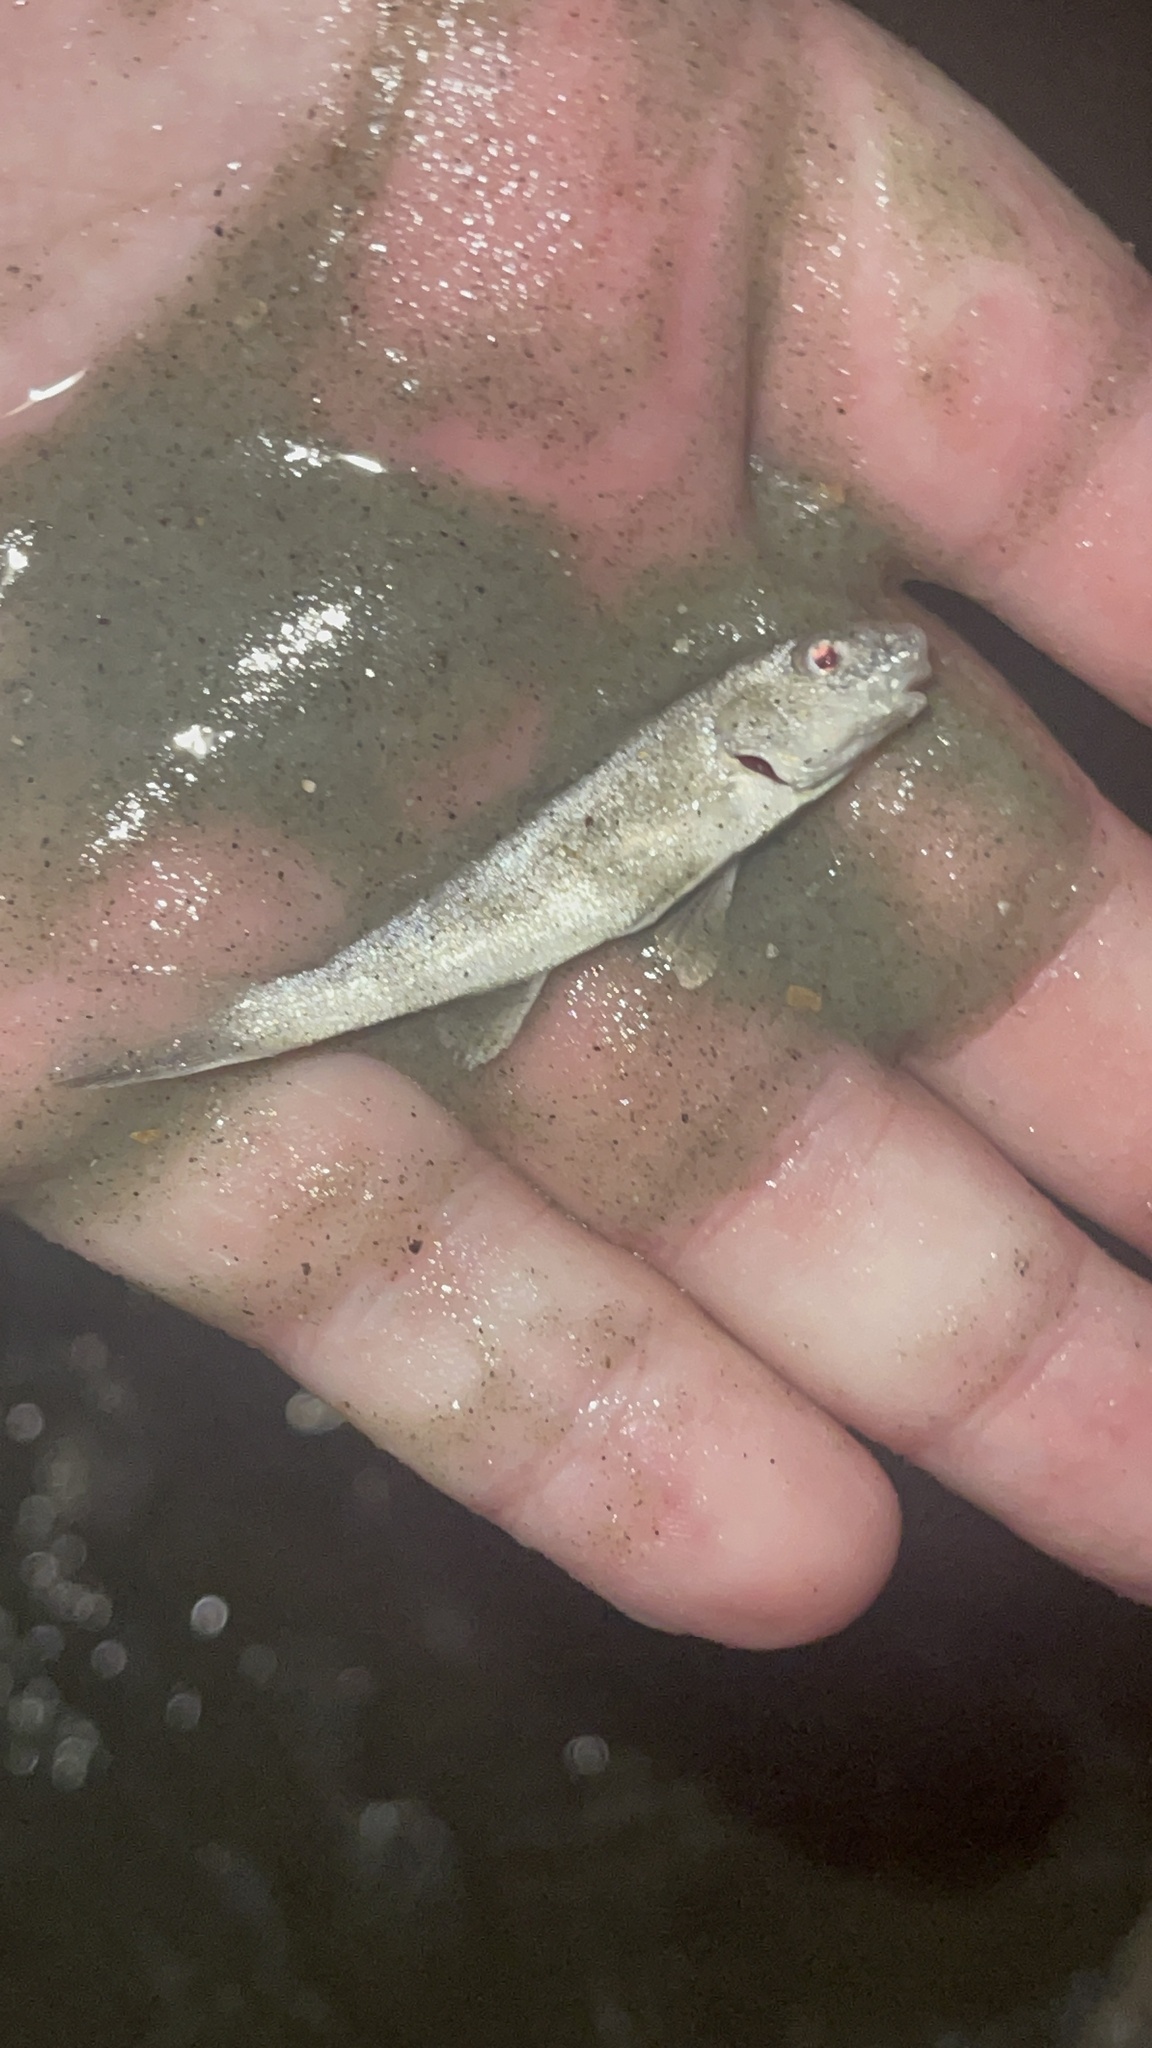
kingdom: Animalia
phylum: Chordata
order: Perciformes
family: Sciaenidae
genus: Menticirrhus
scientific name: Menticirrhus americanus
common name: Southern kingfish
